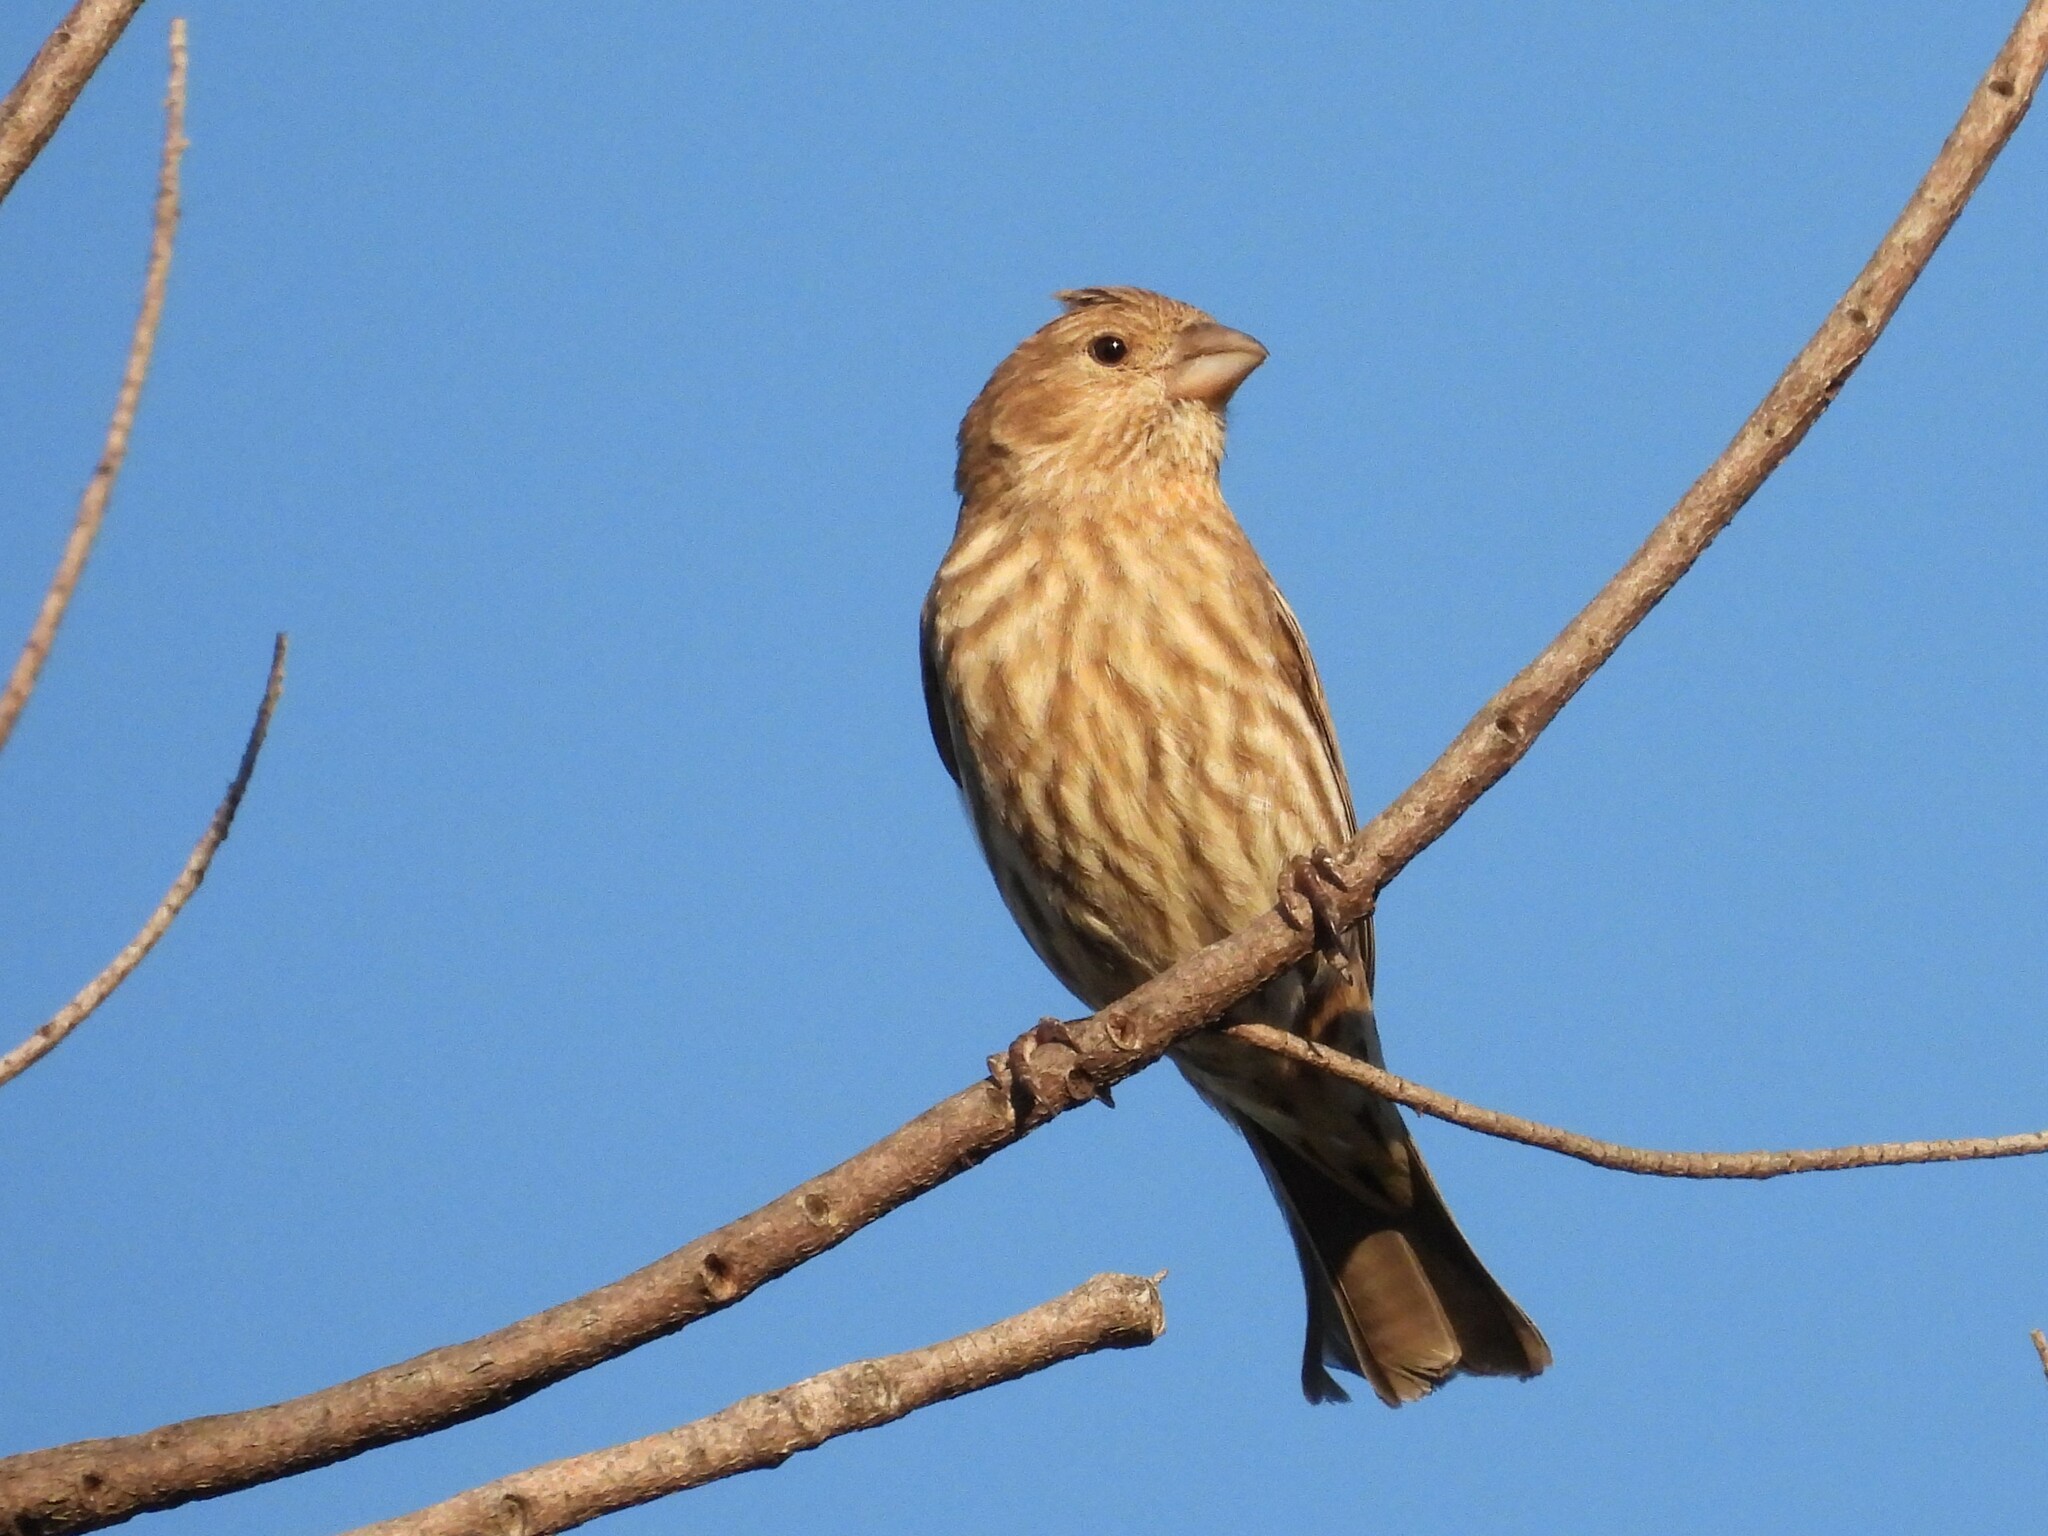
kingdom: Animalia
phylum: Chordata
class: Aves
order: Passeriformes
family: Fringillidae
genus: Haemorhous
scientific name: Haemorhous mexicanus
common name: House finch
